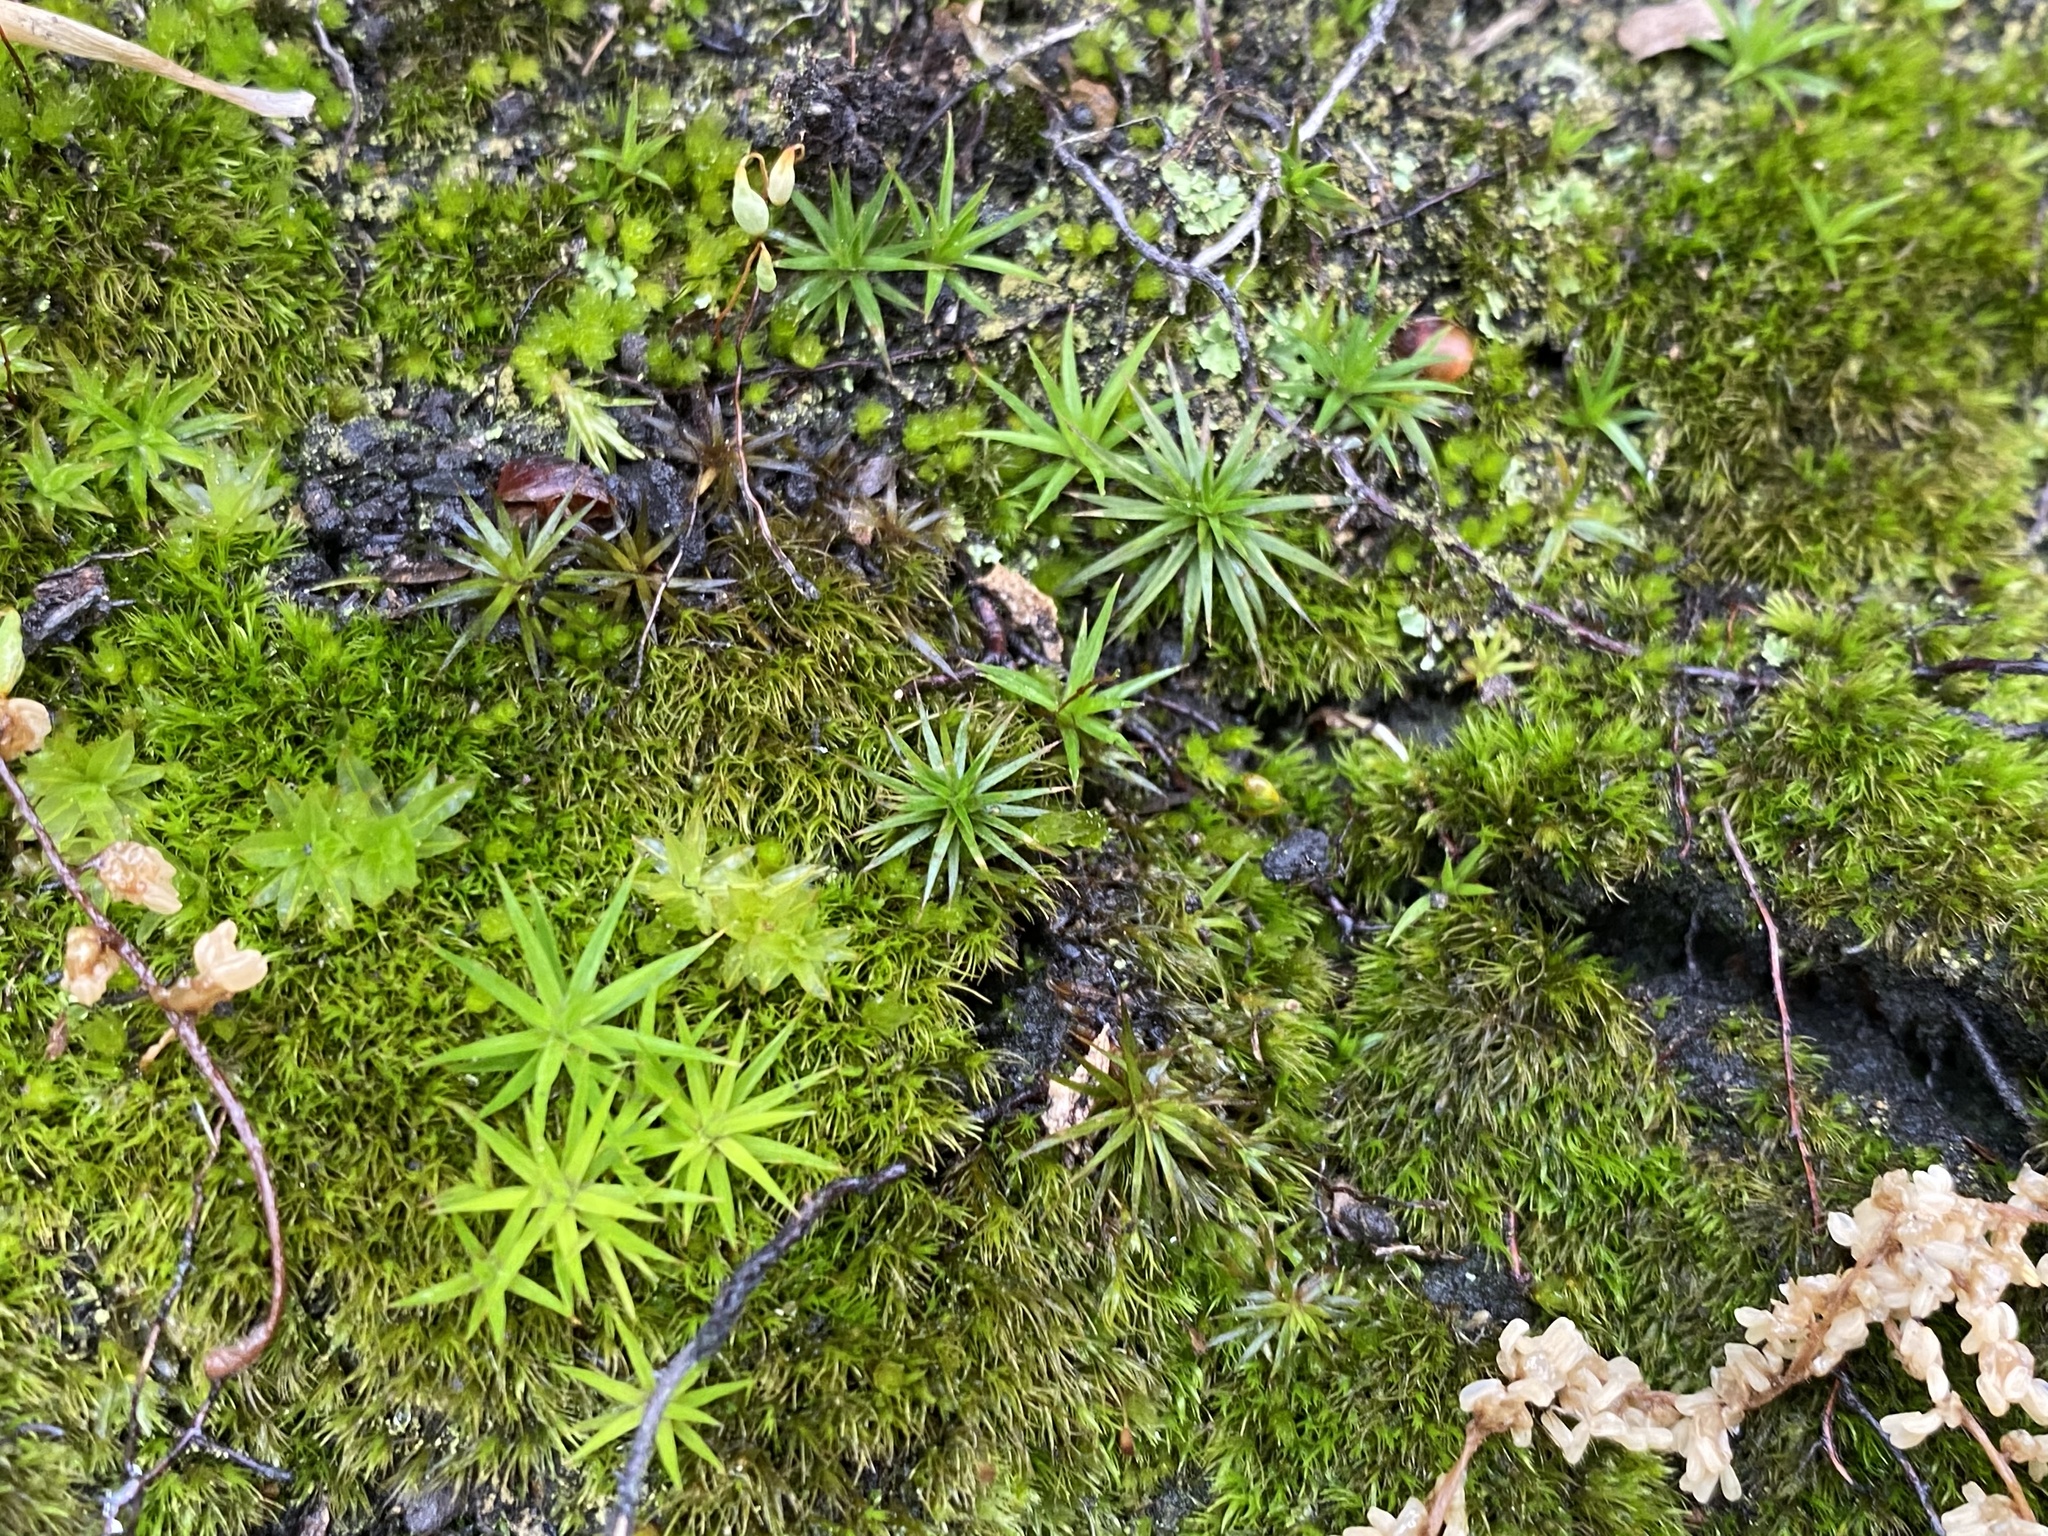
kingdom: Plantae
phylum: Bryophyta
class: Polytrichopsida
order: Polytrichales
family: Polytrichaceae
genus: Polytrichum
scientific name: Polytrichum commune
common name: Common haircap
